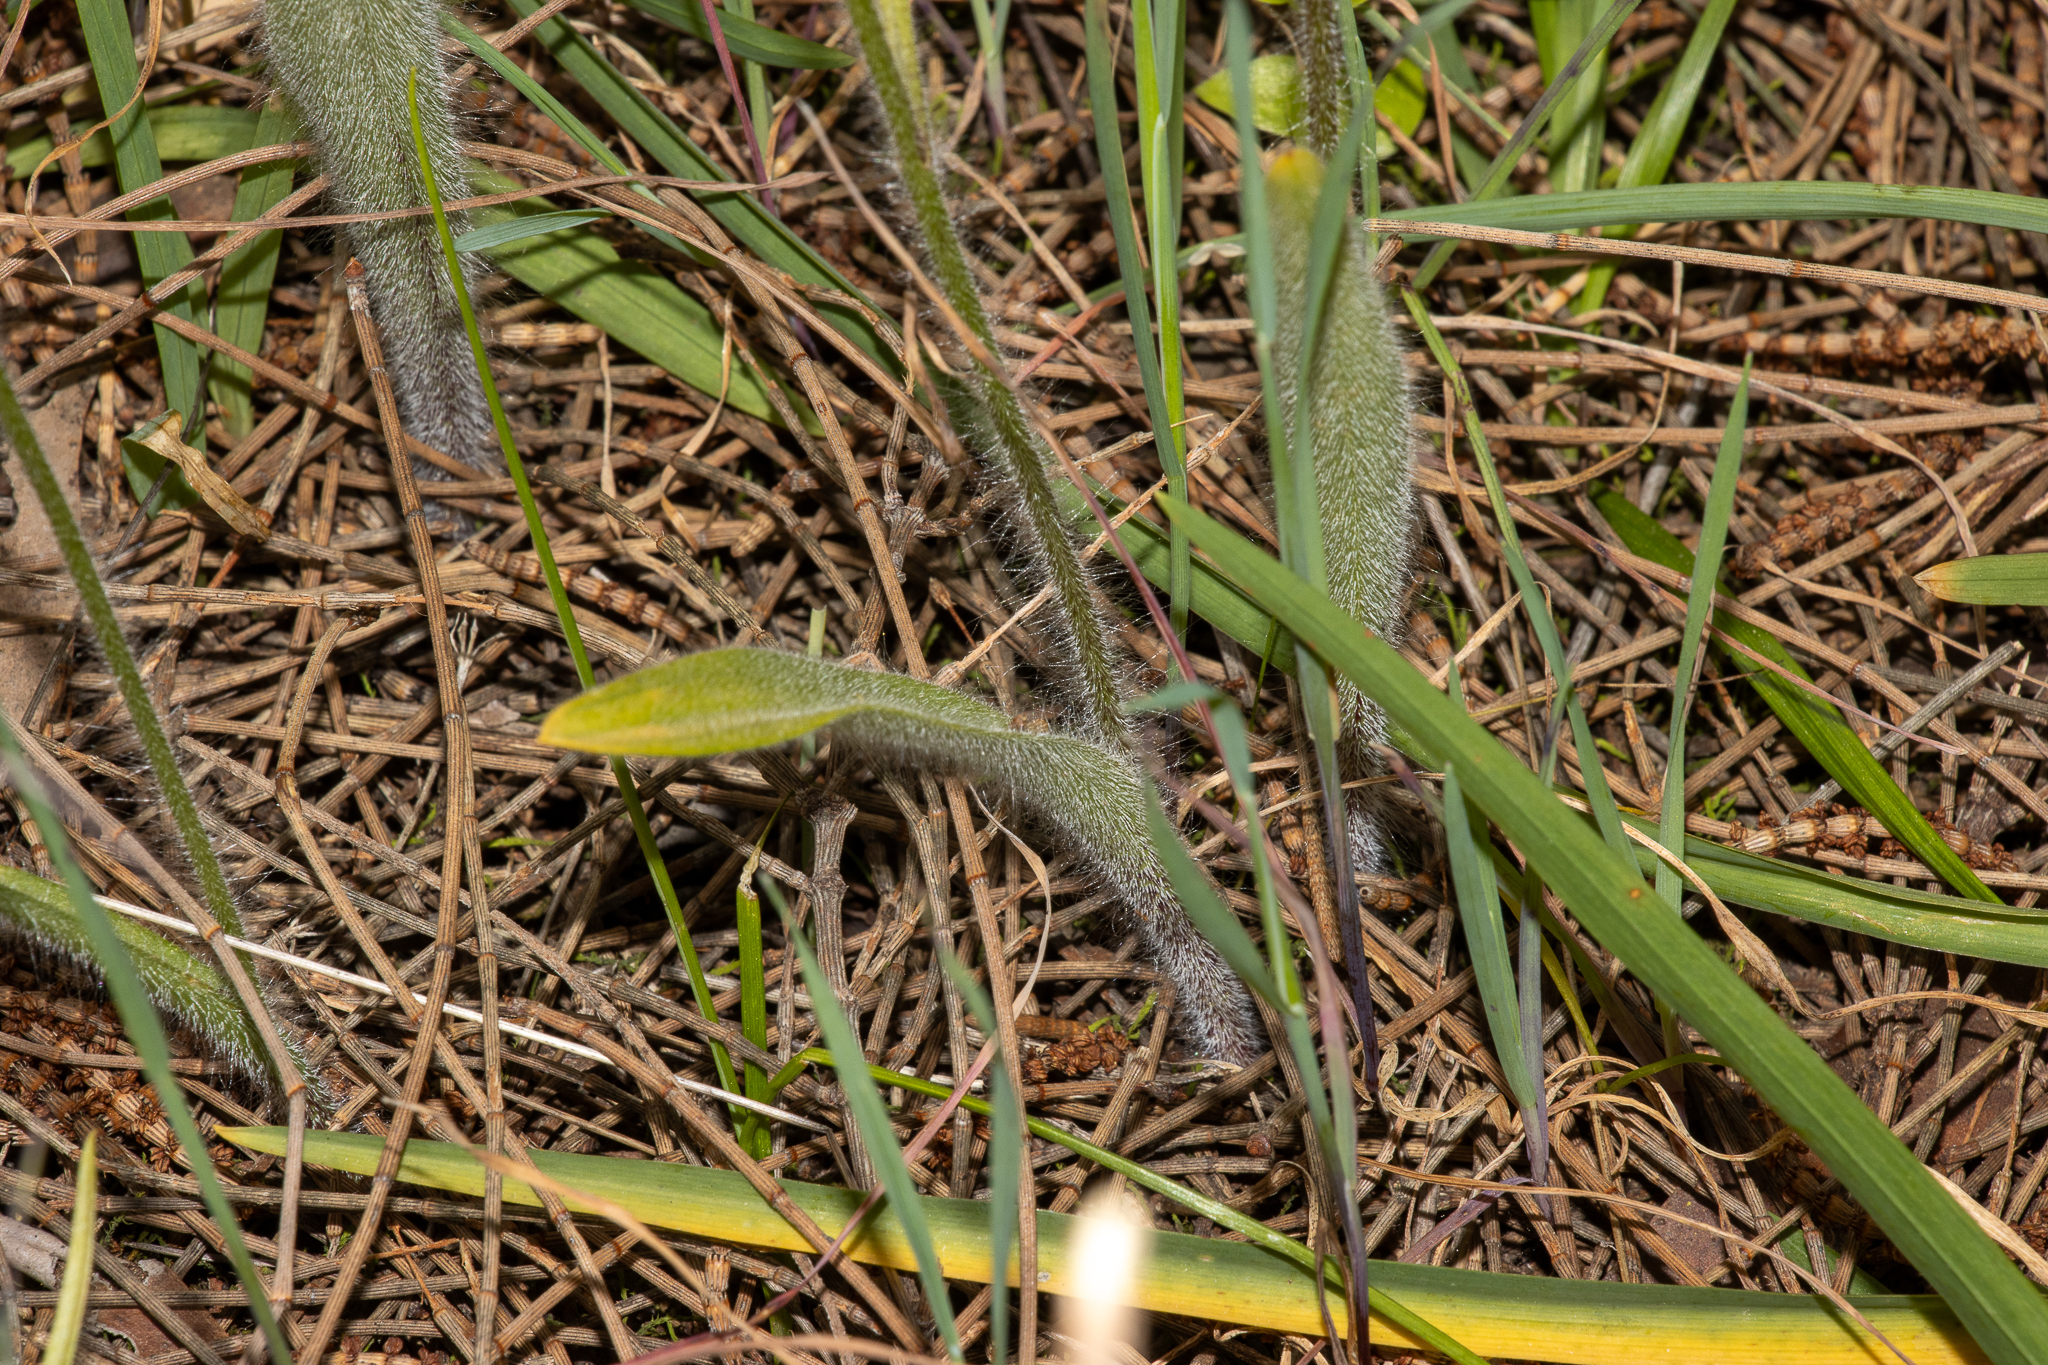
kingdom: Plantae
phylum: Tracheophyta
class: Liliopsida
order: Asparagales
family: Orchidaceae
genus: Caladenia
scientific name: Caladenia intuta
